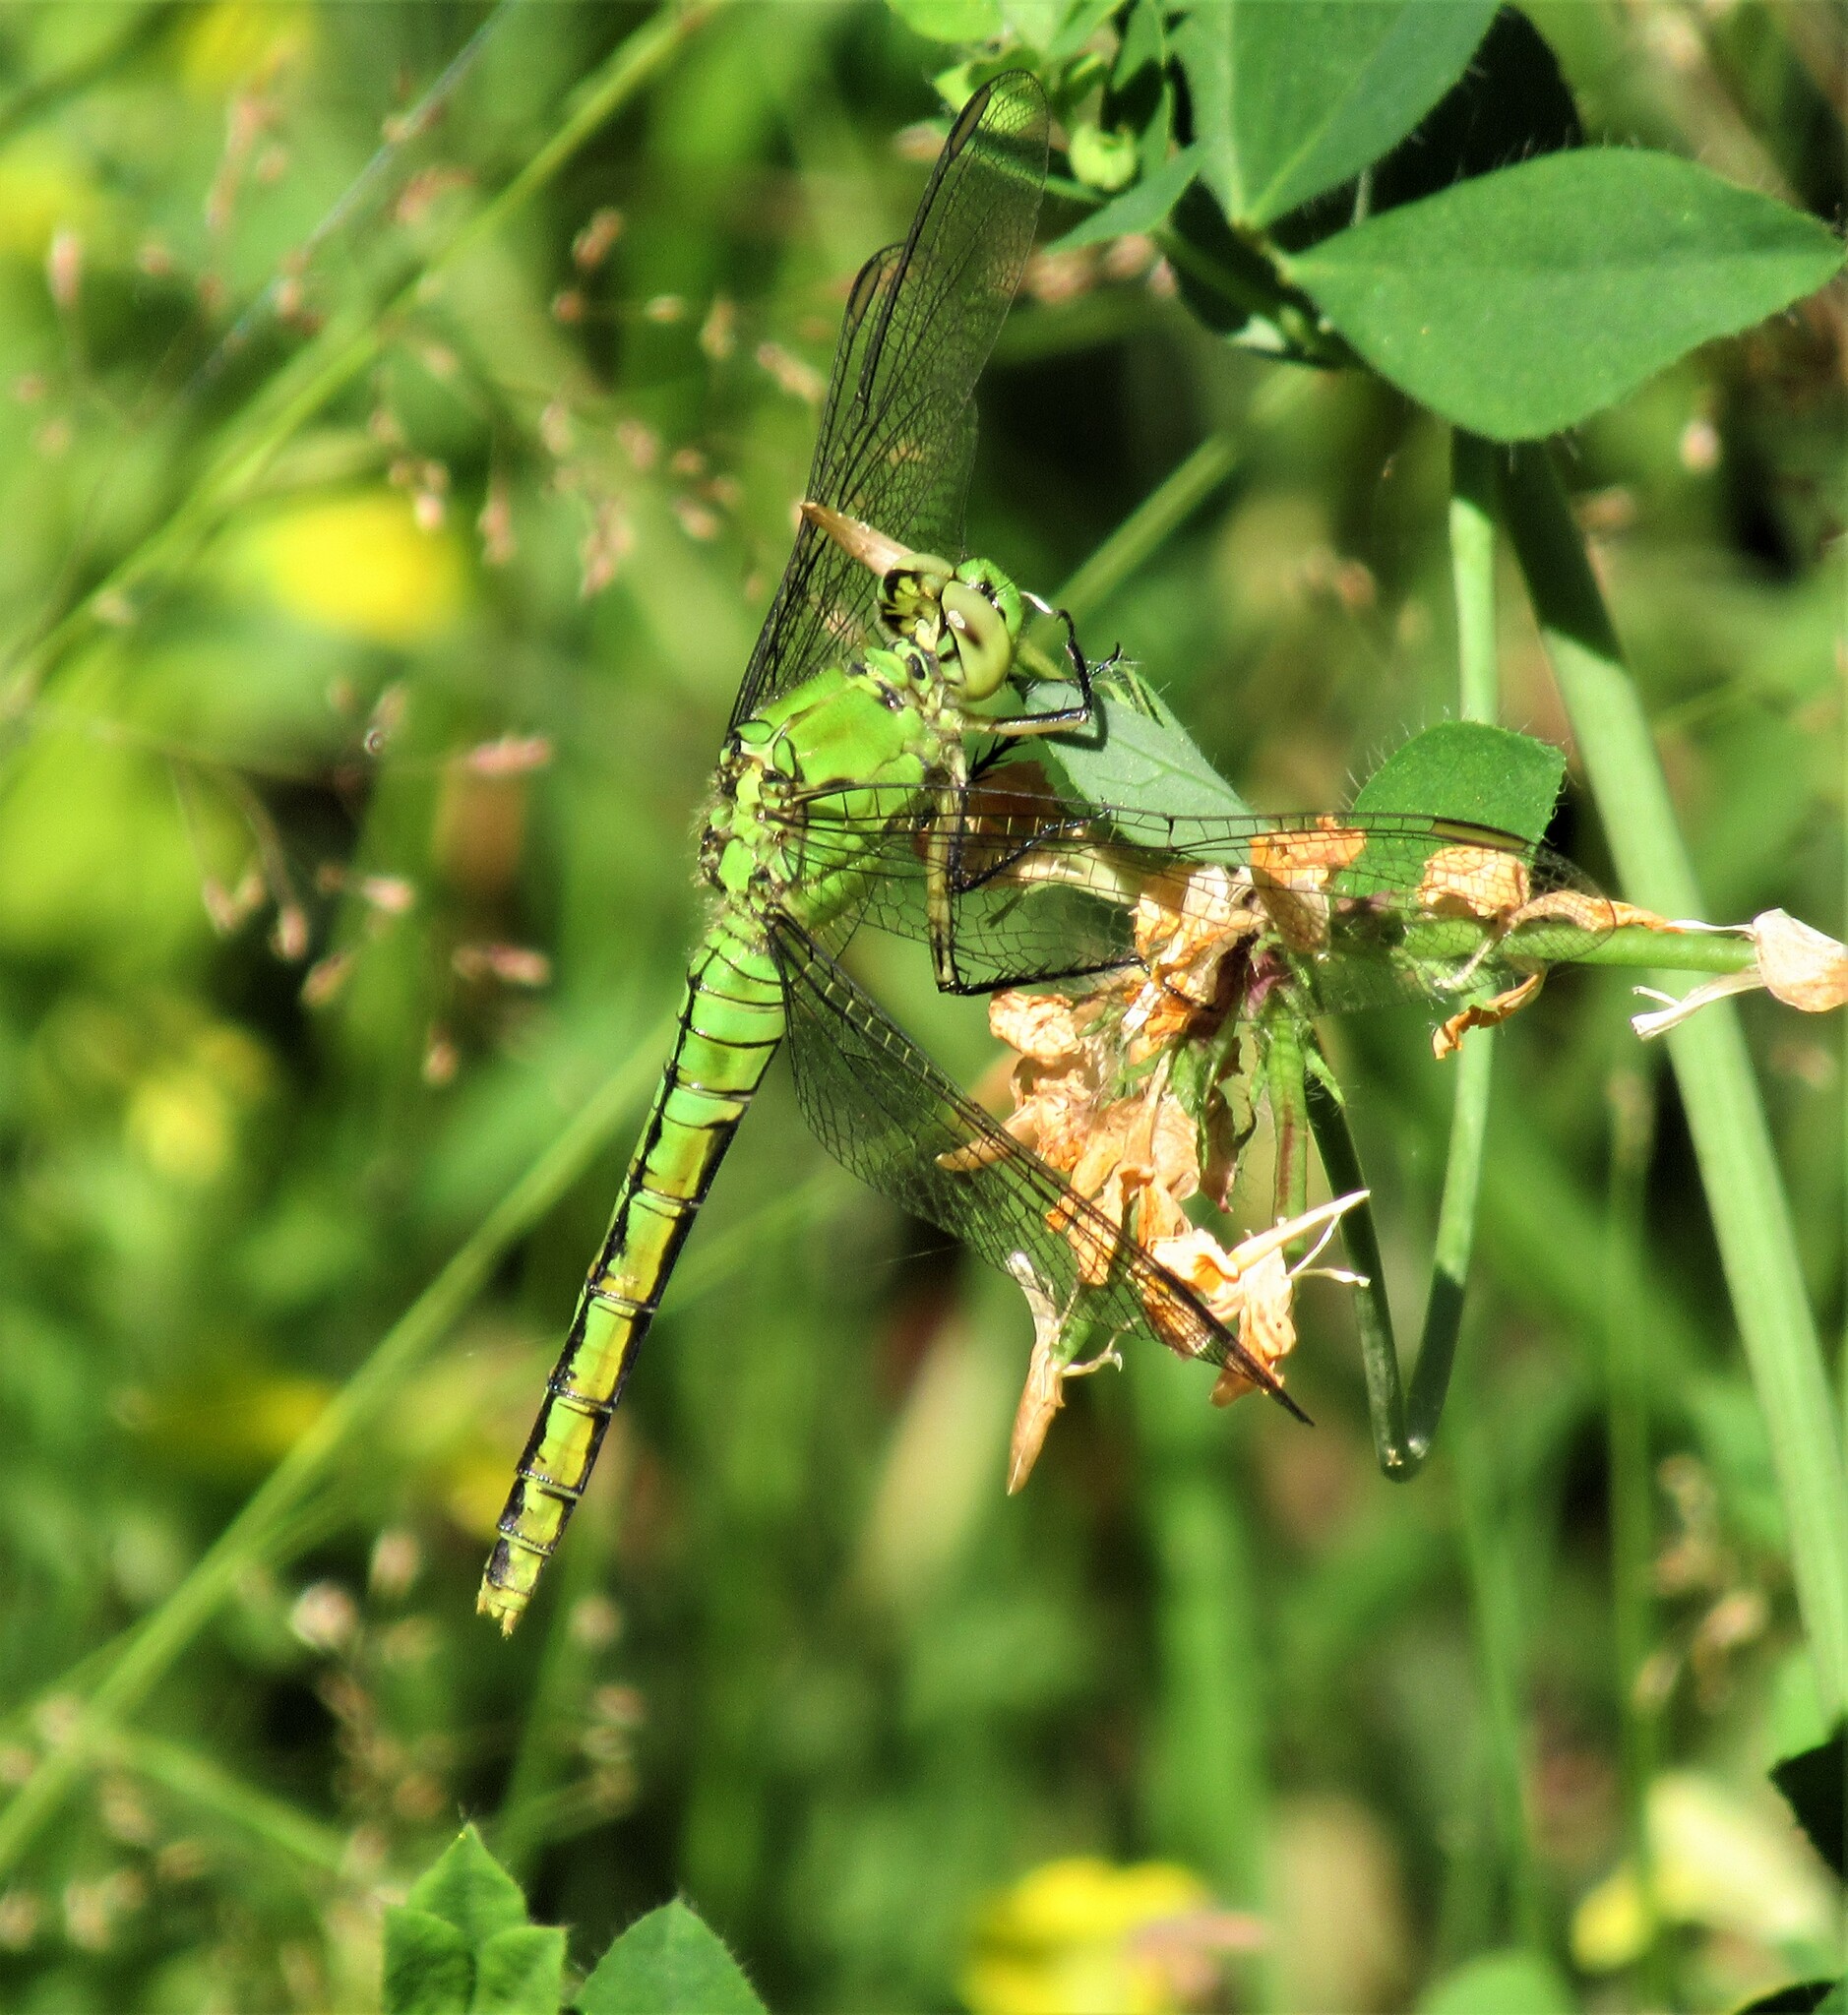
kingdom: Animalia
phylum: Arthropoda
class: Insecta
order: Odonata
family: Libellulidae
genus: Erythemis
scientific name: Erythemis collocata
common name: Western pondhawk
